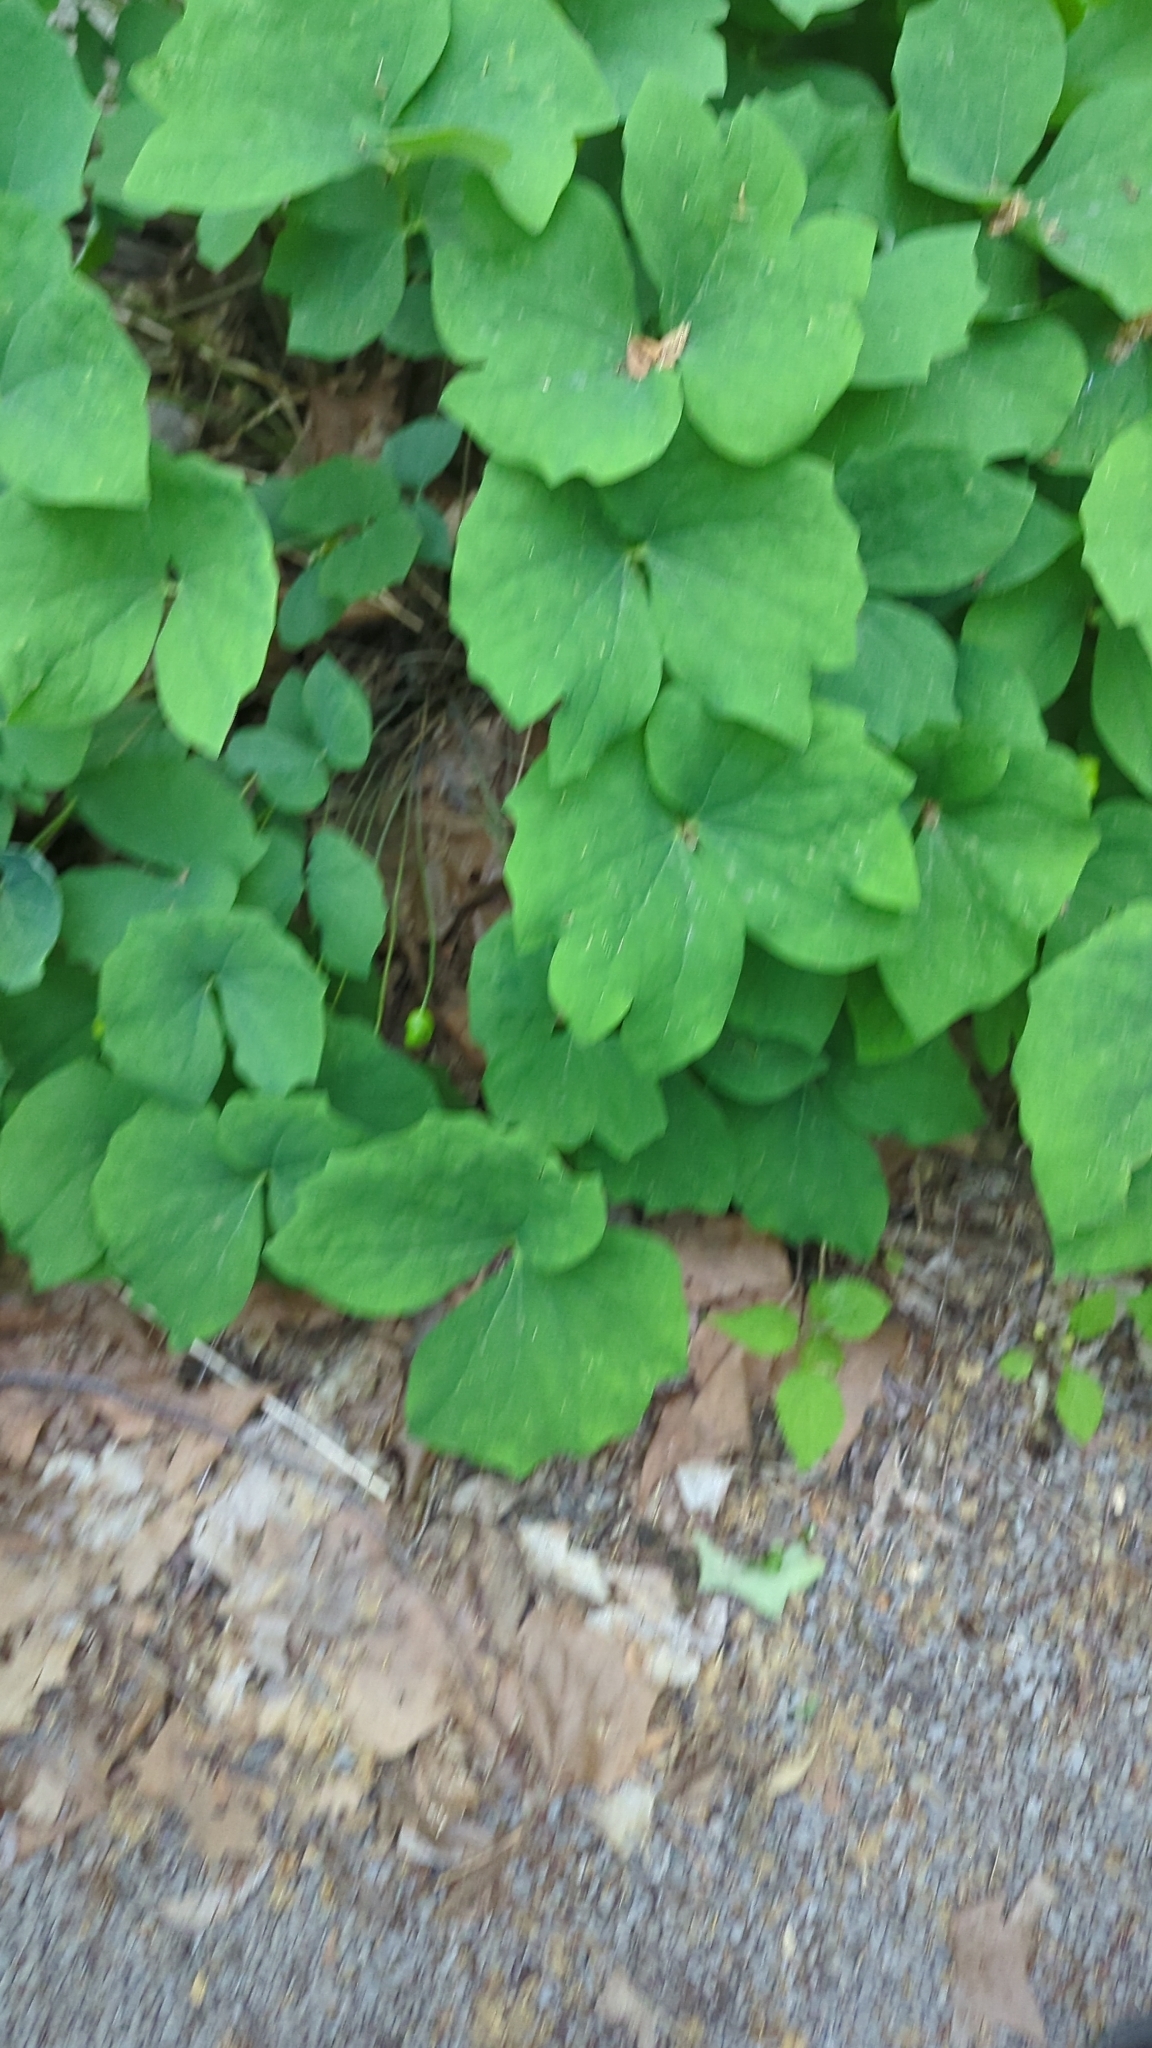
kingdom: Plantae
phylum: Tracheophyta
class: Magnoliopsida
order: Ranunculales
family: Berberidaceae
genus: Jeffersonia
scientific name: Jeffersonia diphylla
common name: Rheumatism-root
